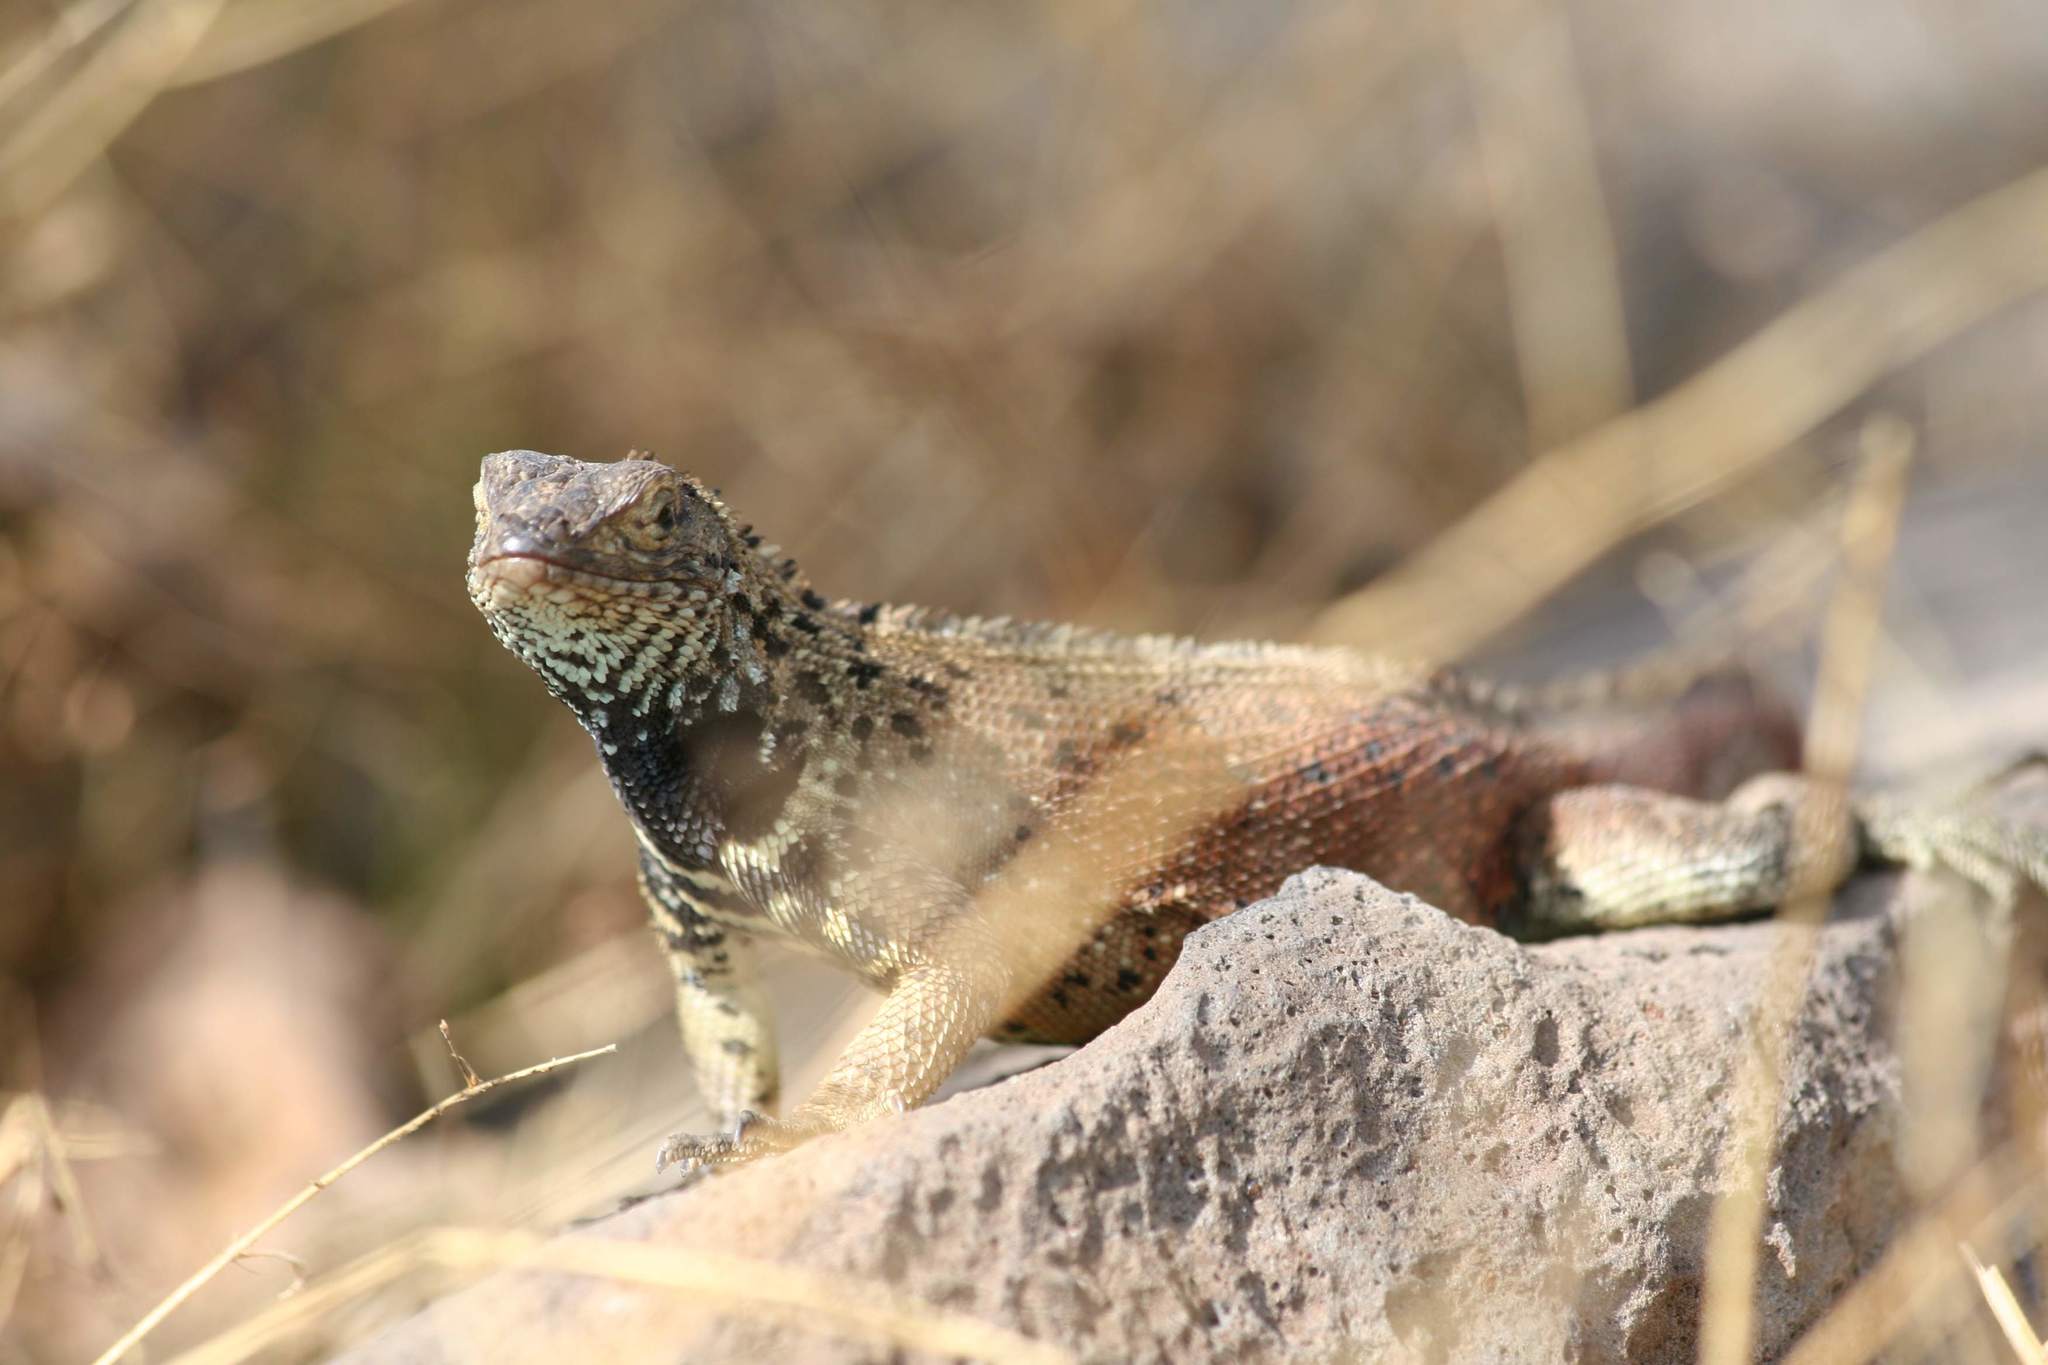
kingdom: Animalia
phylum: Chordata
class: Squamata
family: Tropiduridae
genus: Microlophus
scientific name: Microlophus albemarlensis
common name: Galapagos lava lizard
